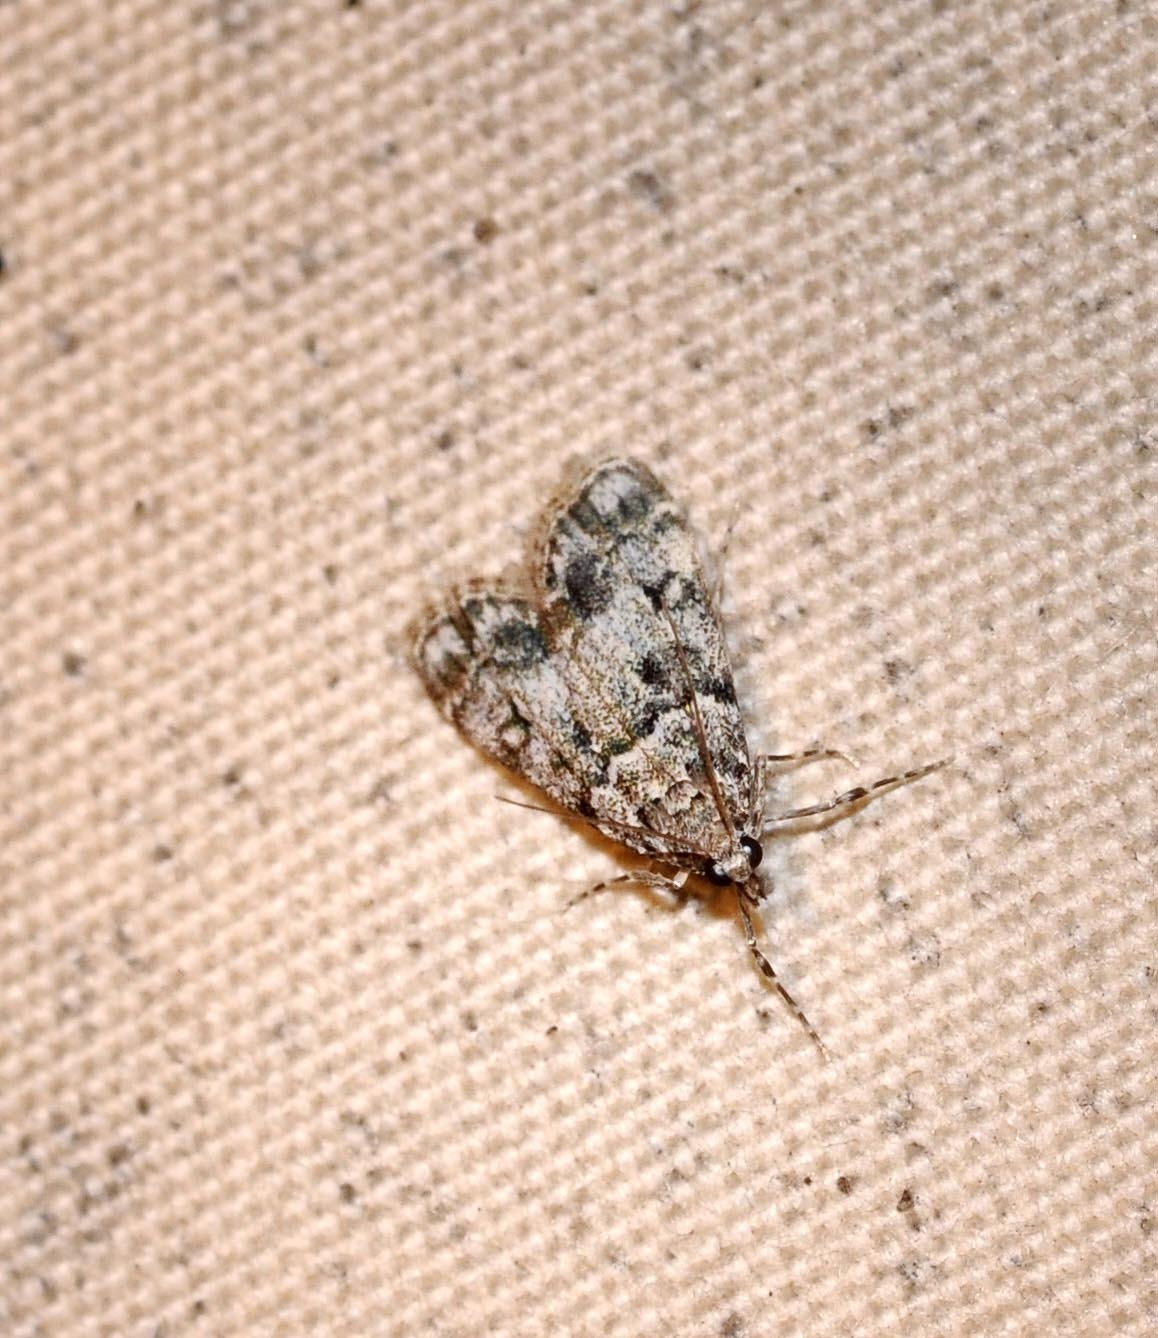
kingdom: Animalia
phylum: Arthropoda
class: Insecta
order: Lepidoptera
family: Crambidae
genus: Eudonia
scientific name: Eudonia lacustrata
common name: Little grey
